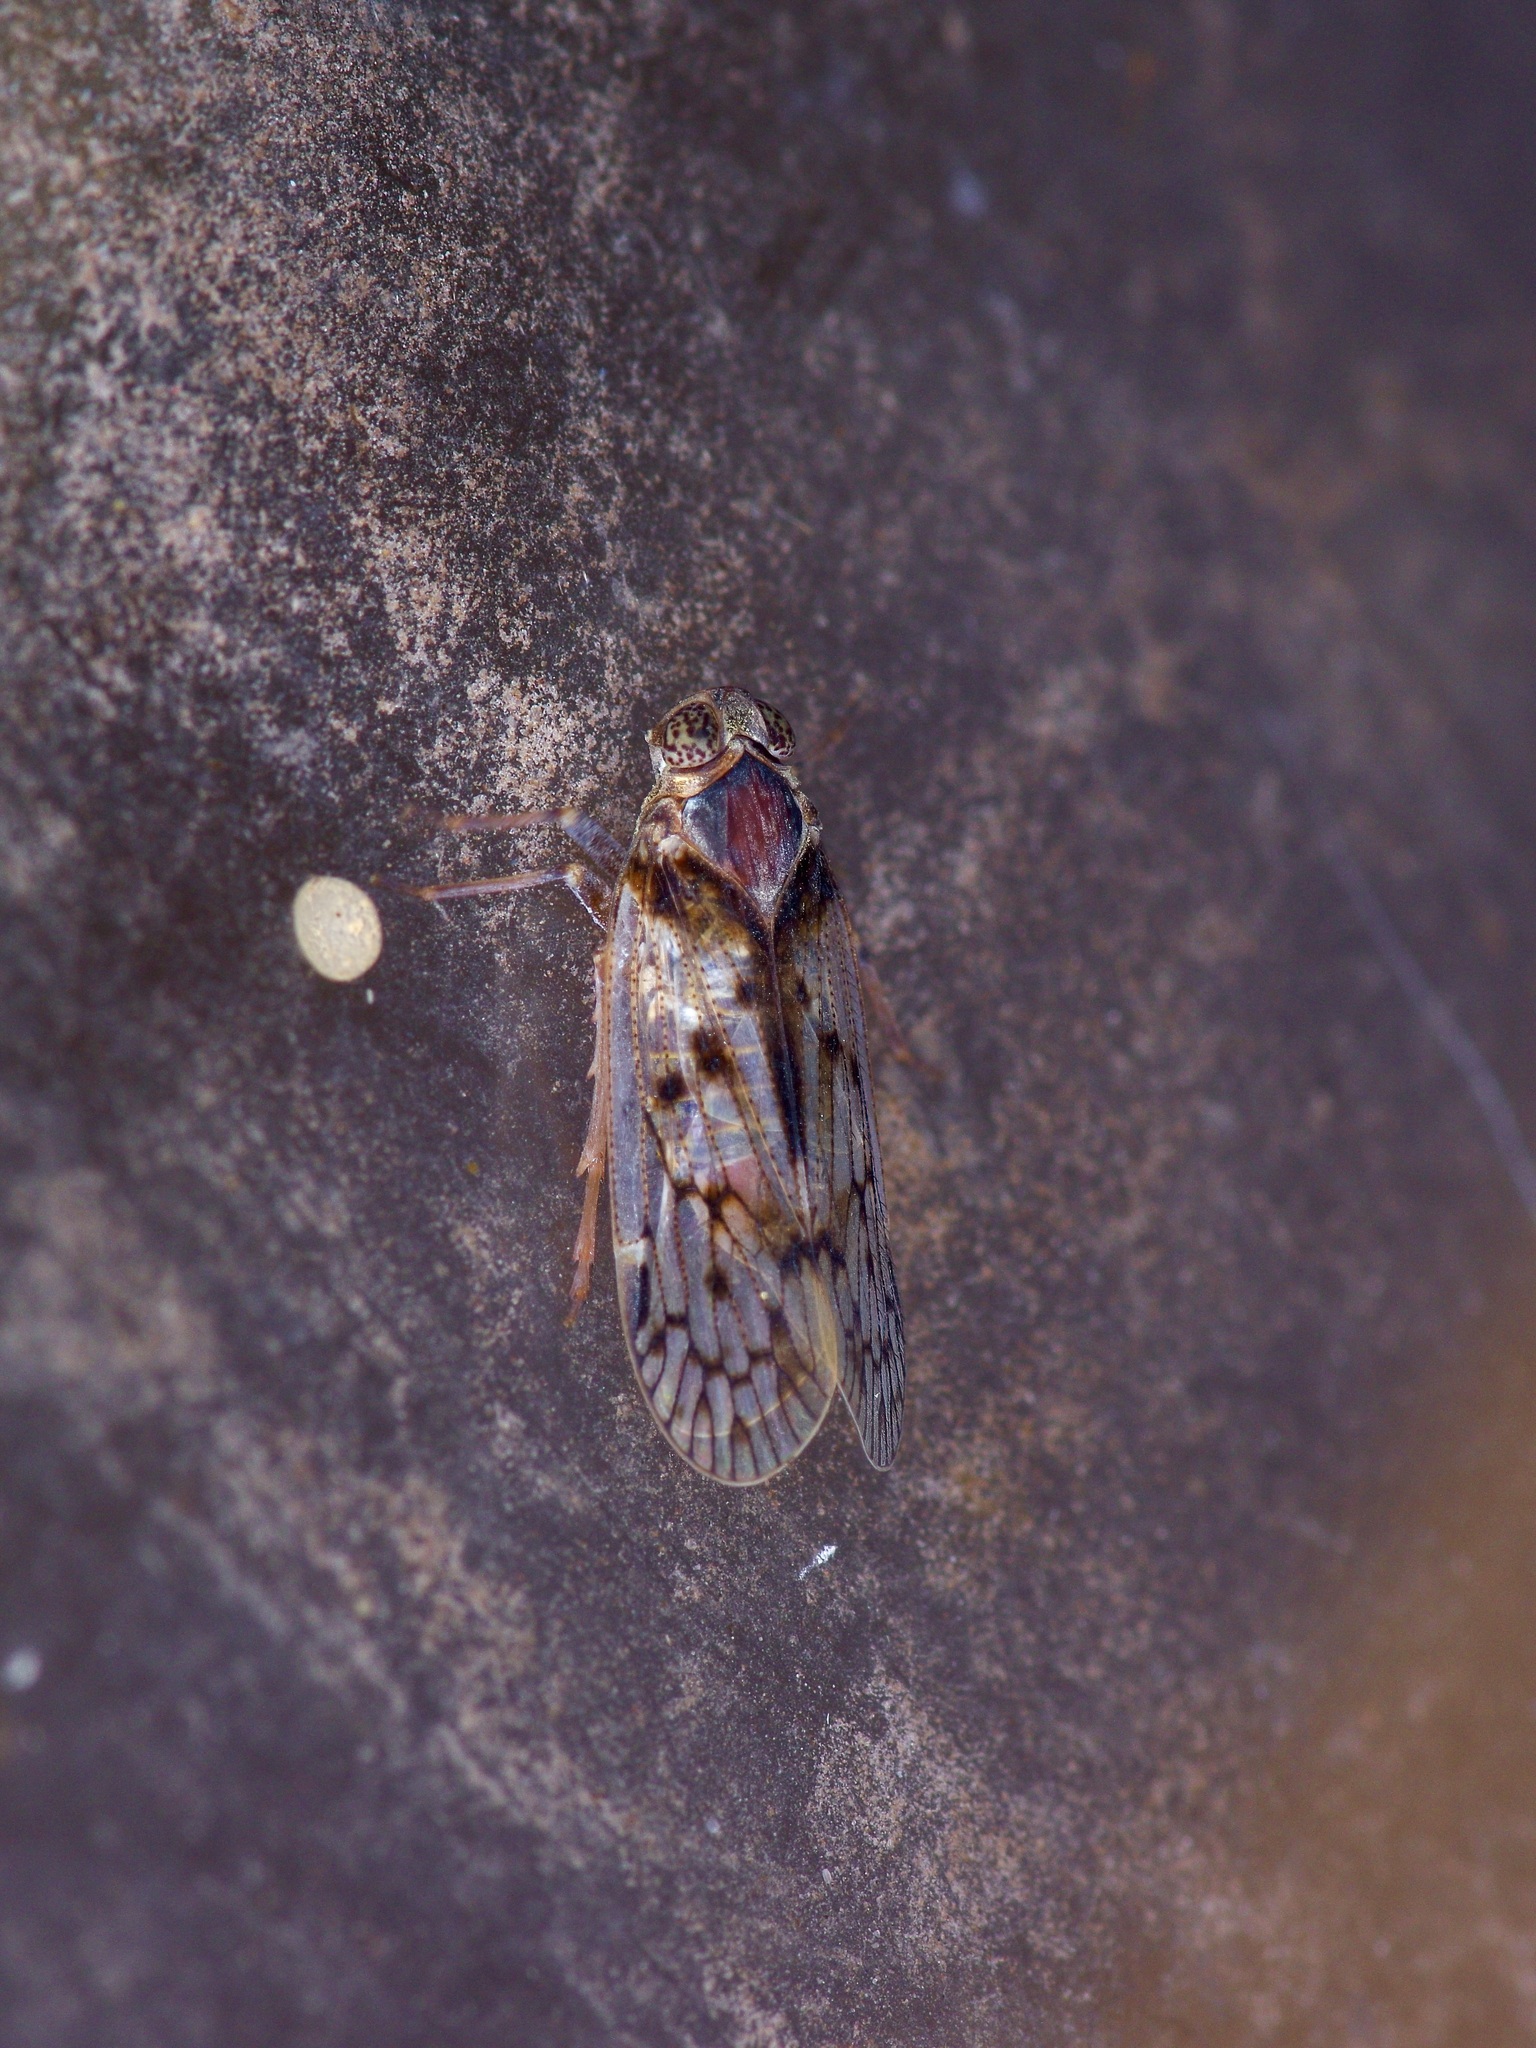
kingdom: Animalia
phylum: Arthropoda
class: Insecta
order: Hemiptera
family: Cixiidae
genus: Melanoliarus
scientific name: Melanoliarus aridus
